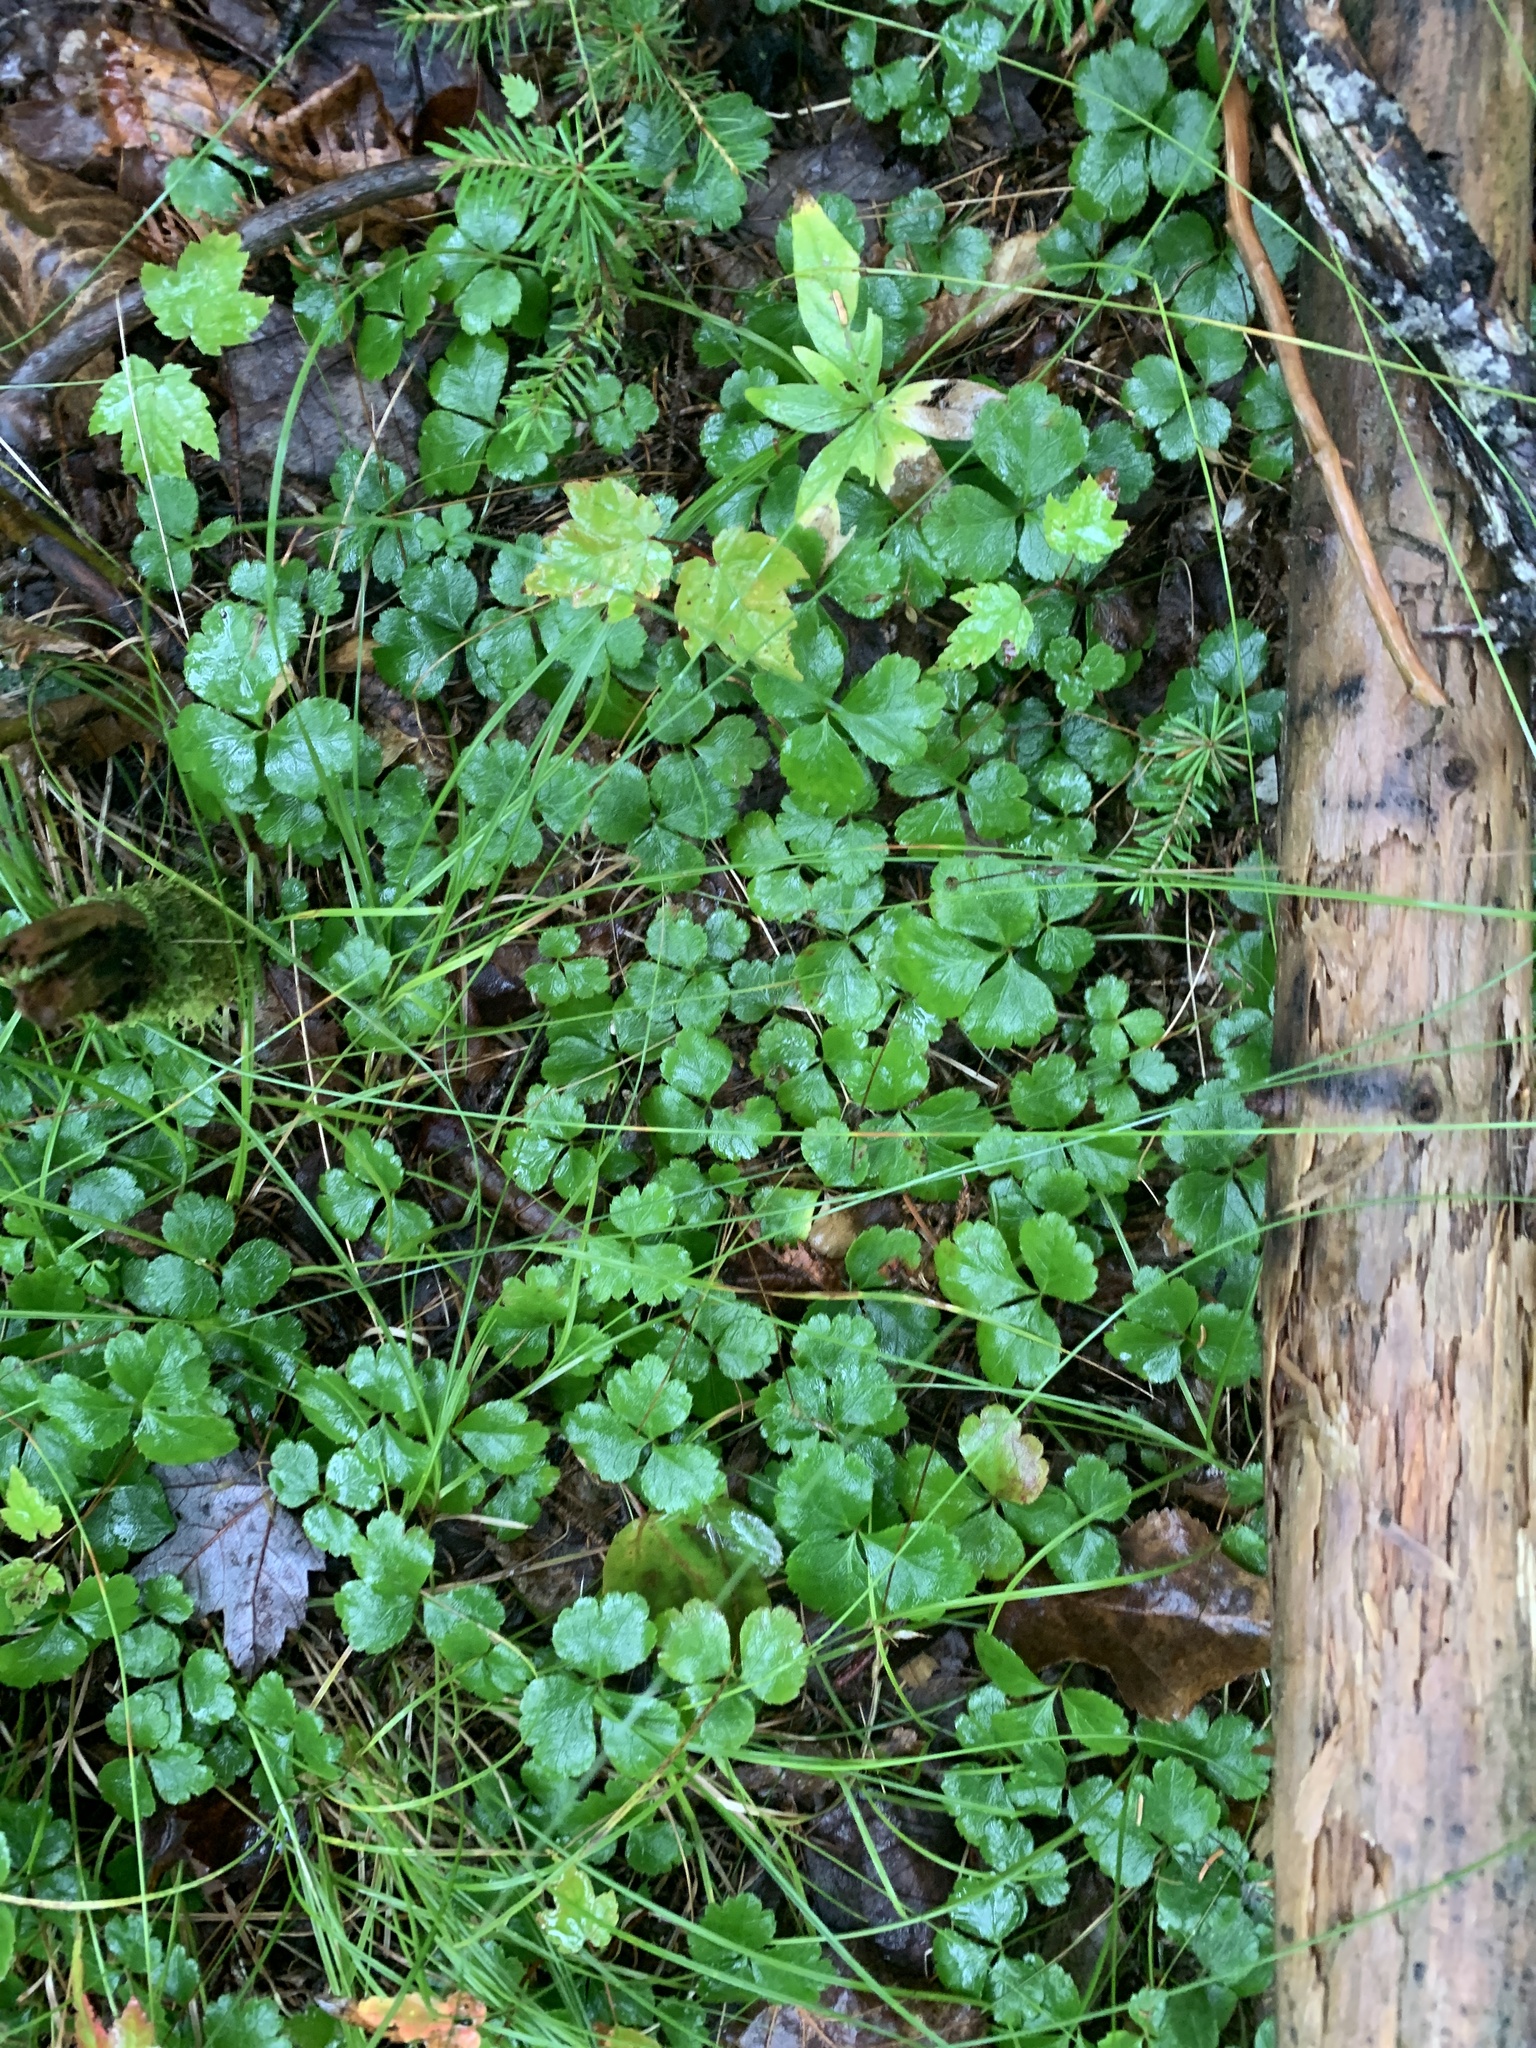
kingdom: Plantae
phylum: Tracheophyta
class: Magnoliopsida
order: Ranunculales
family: Ranunculaceae
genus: Coptis
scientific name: Coptis trifolia
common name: Canker-root
